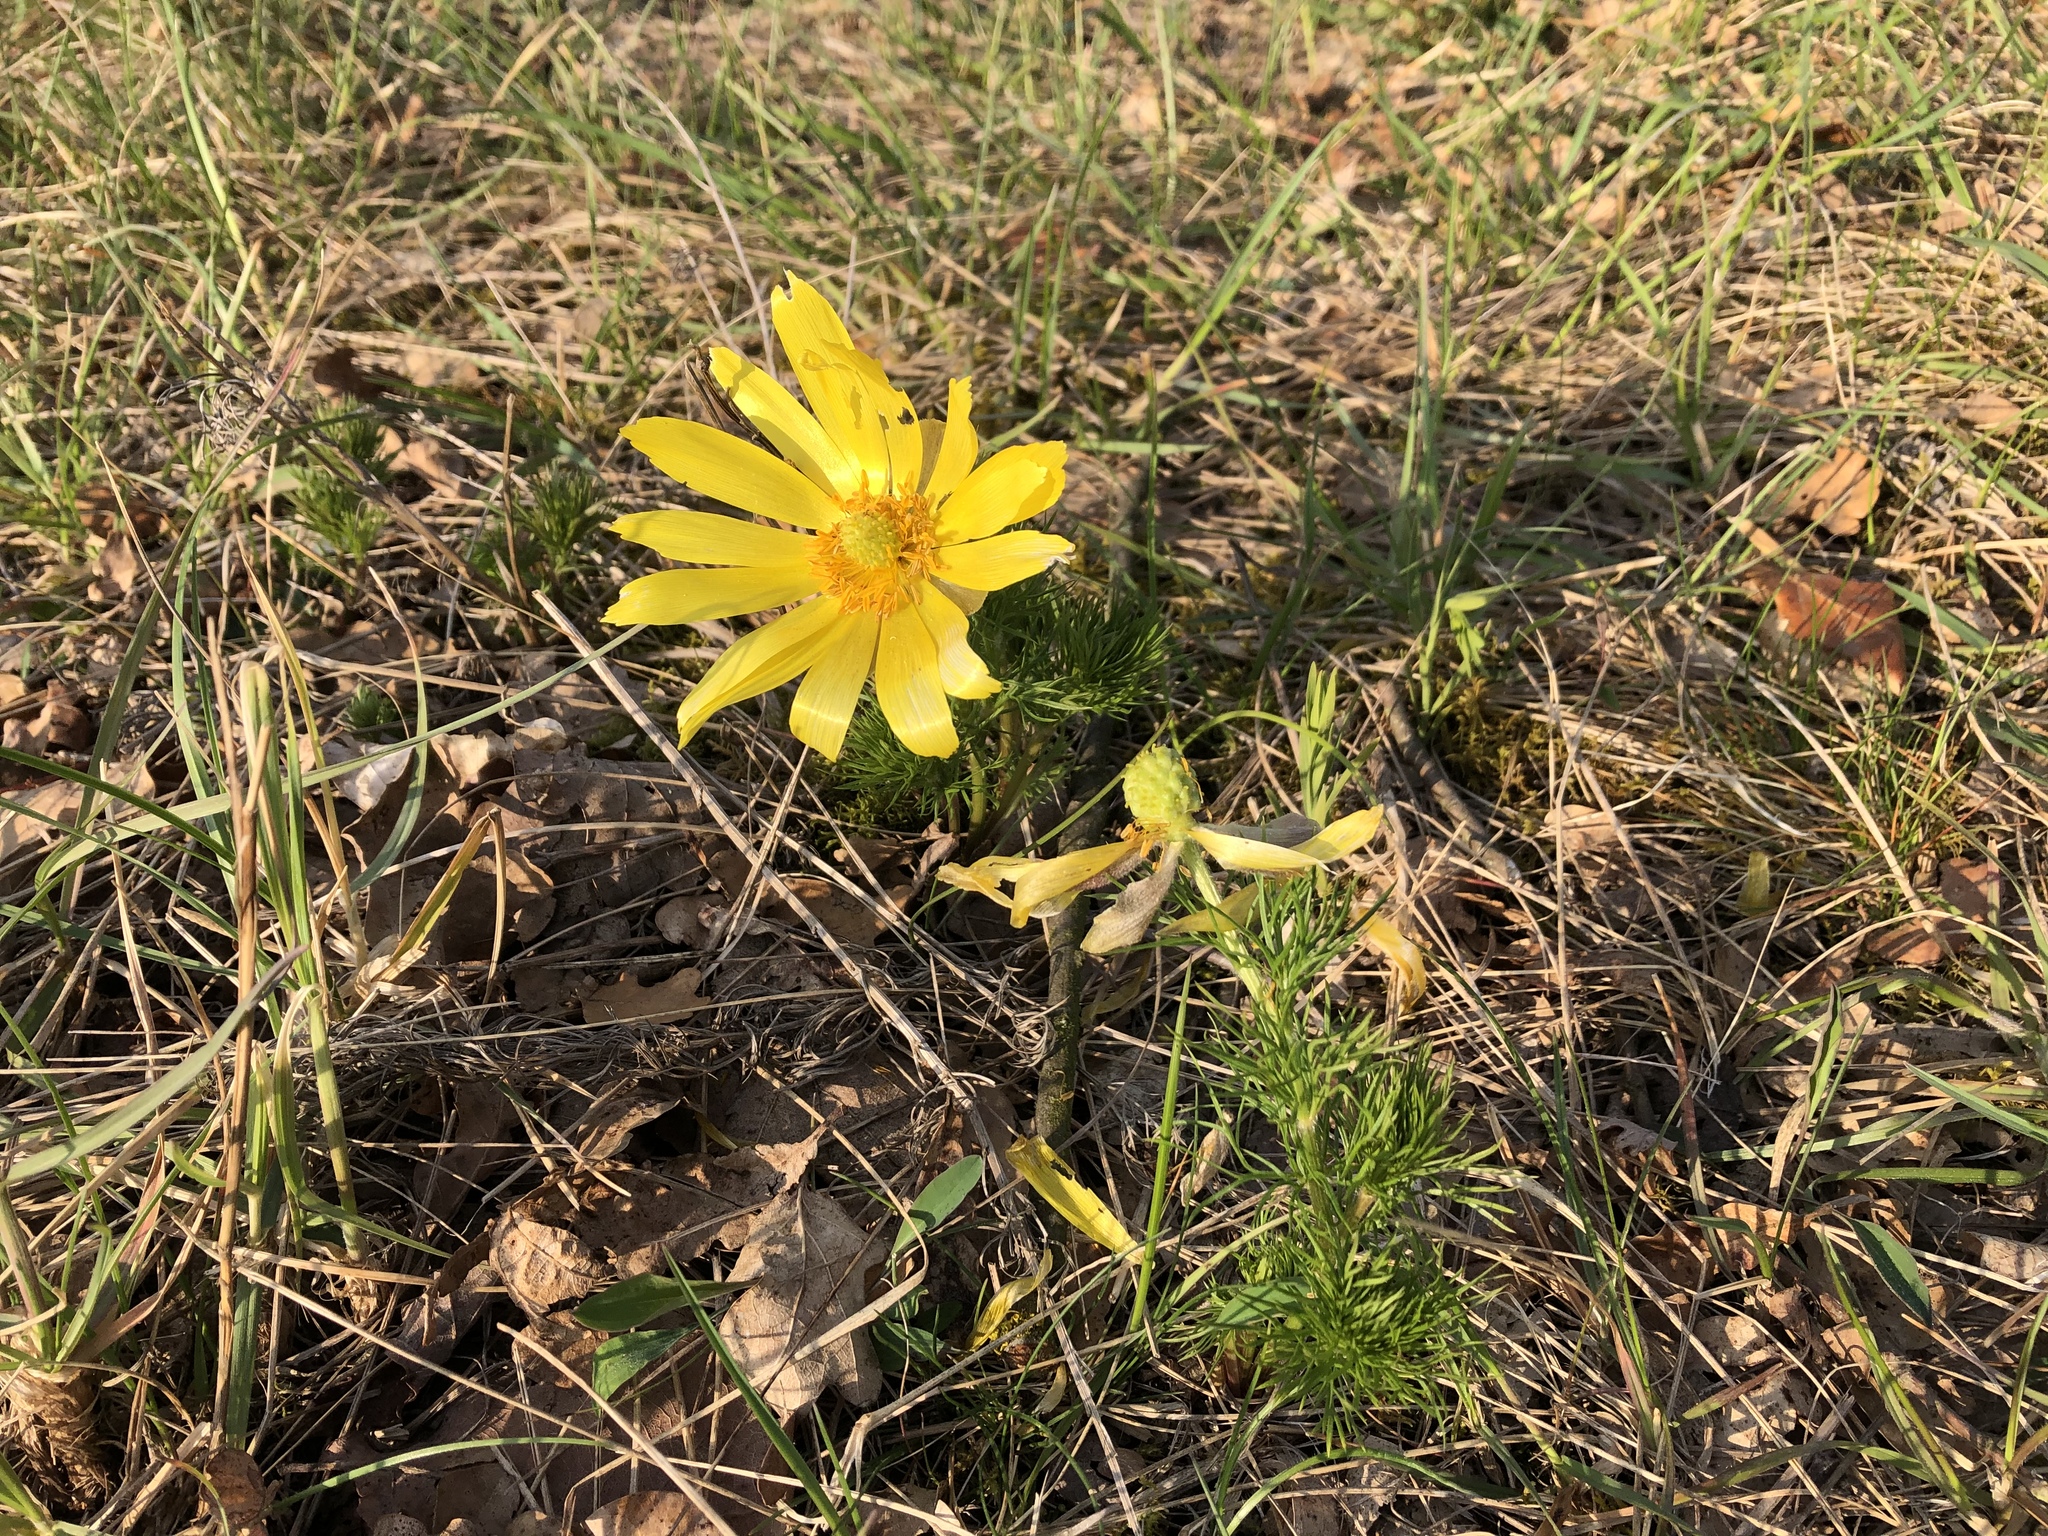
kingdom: Plantae
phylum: Tracheophyta
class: Magnoliopsida
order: Ranunculales
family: Ranunculaceae
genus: Adonis
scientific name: Adonis vernalis
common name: Yellow pheasants-eye
